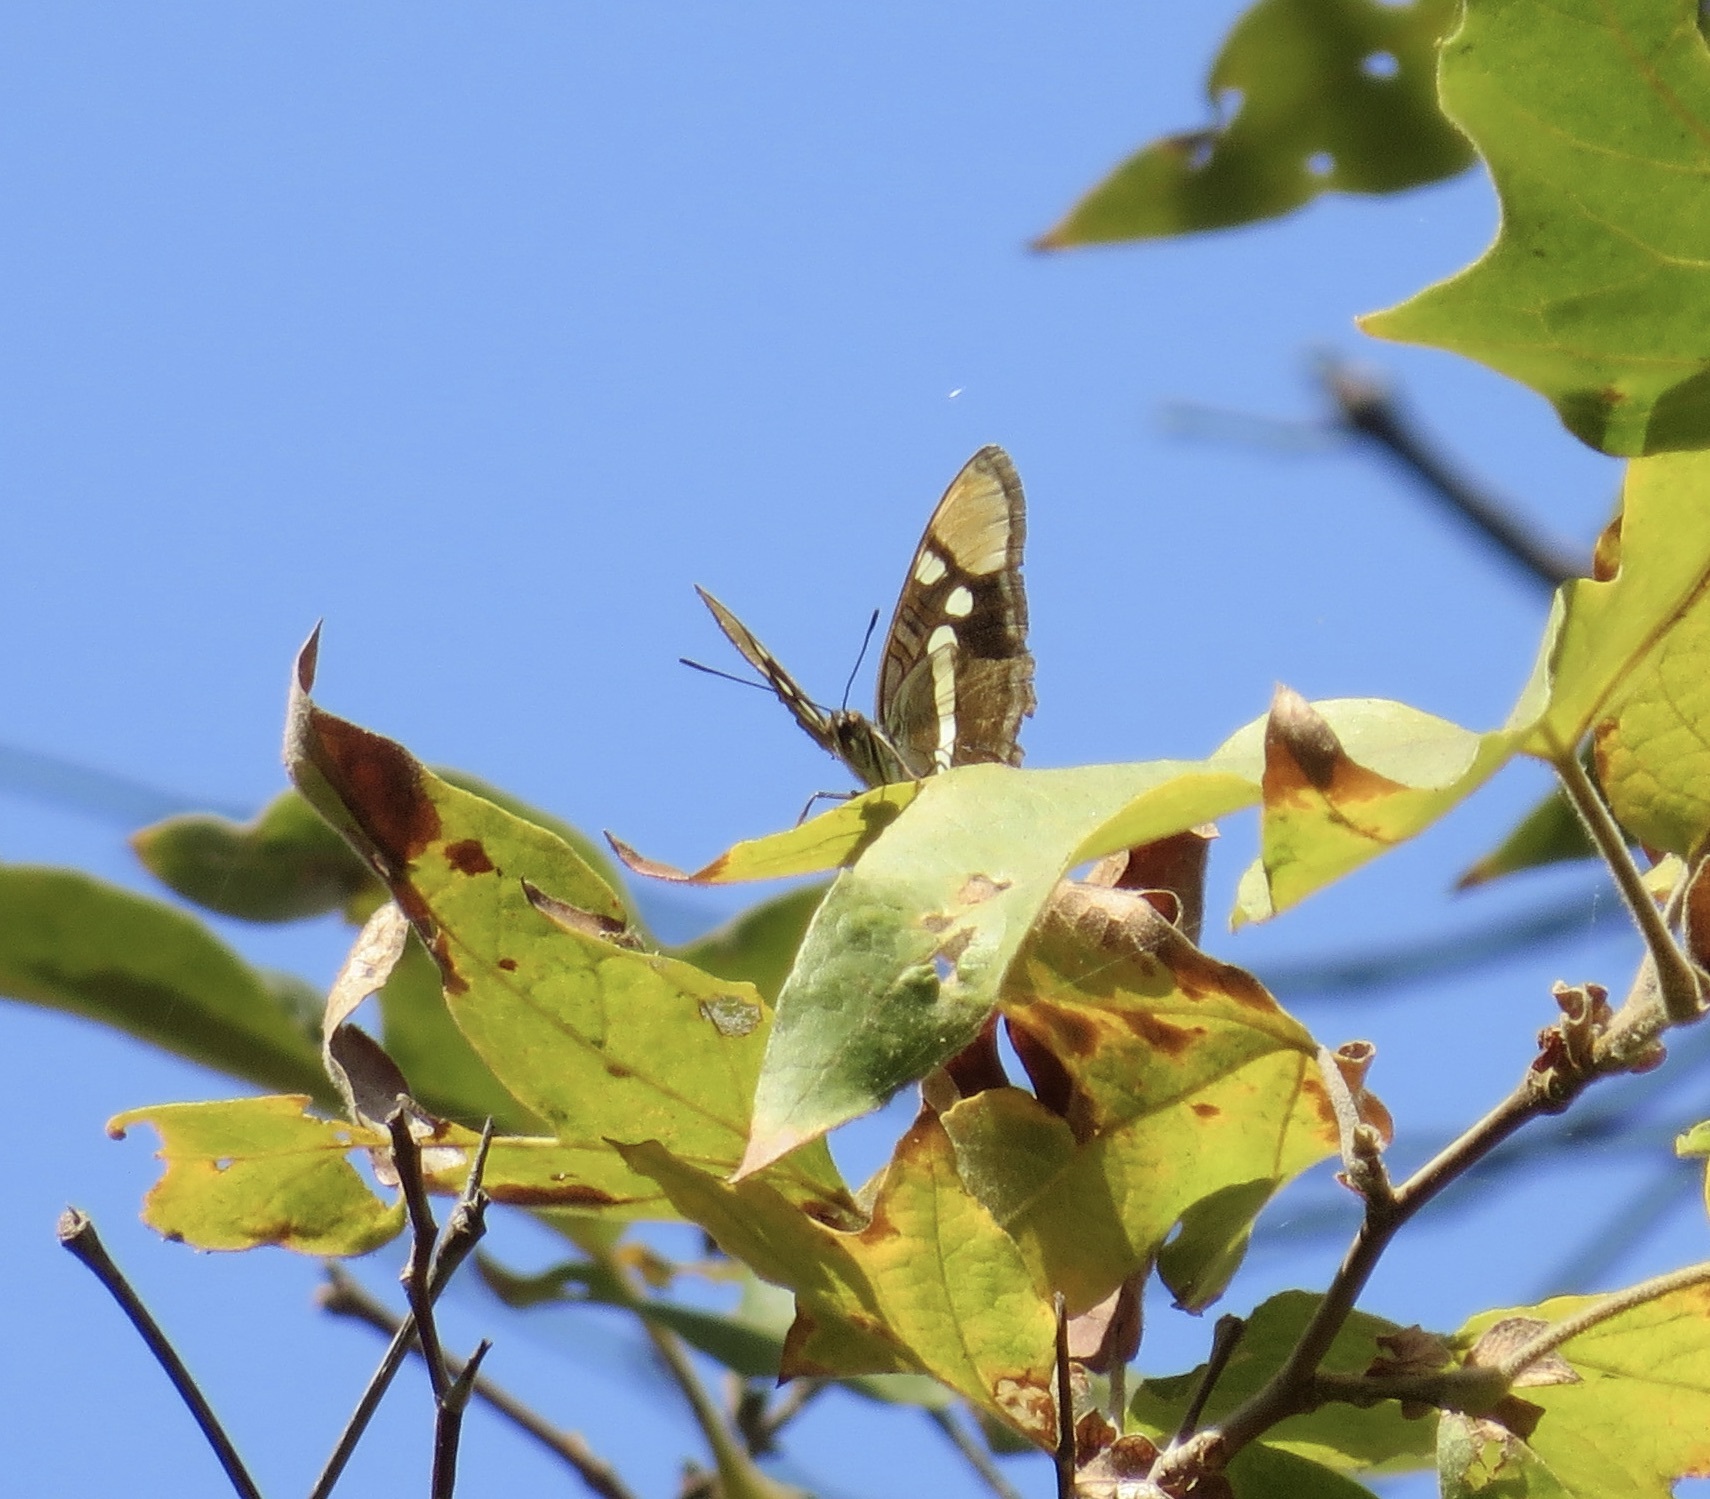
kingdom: Animalia
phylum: Arthropoda
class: Insecta
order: Lepidoptera
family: Nymphalidae
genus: Limenitis
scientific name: Limenitis bredowii
